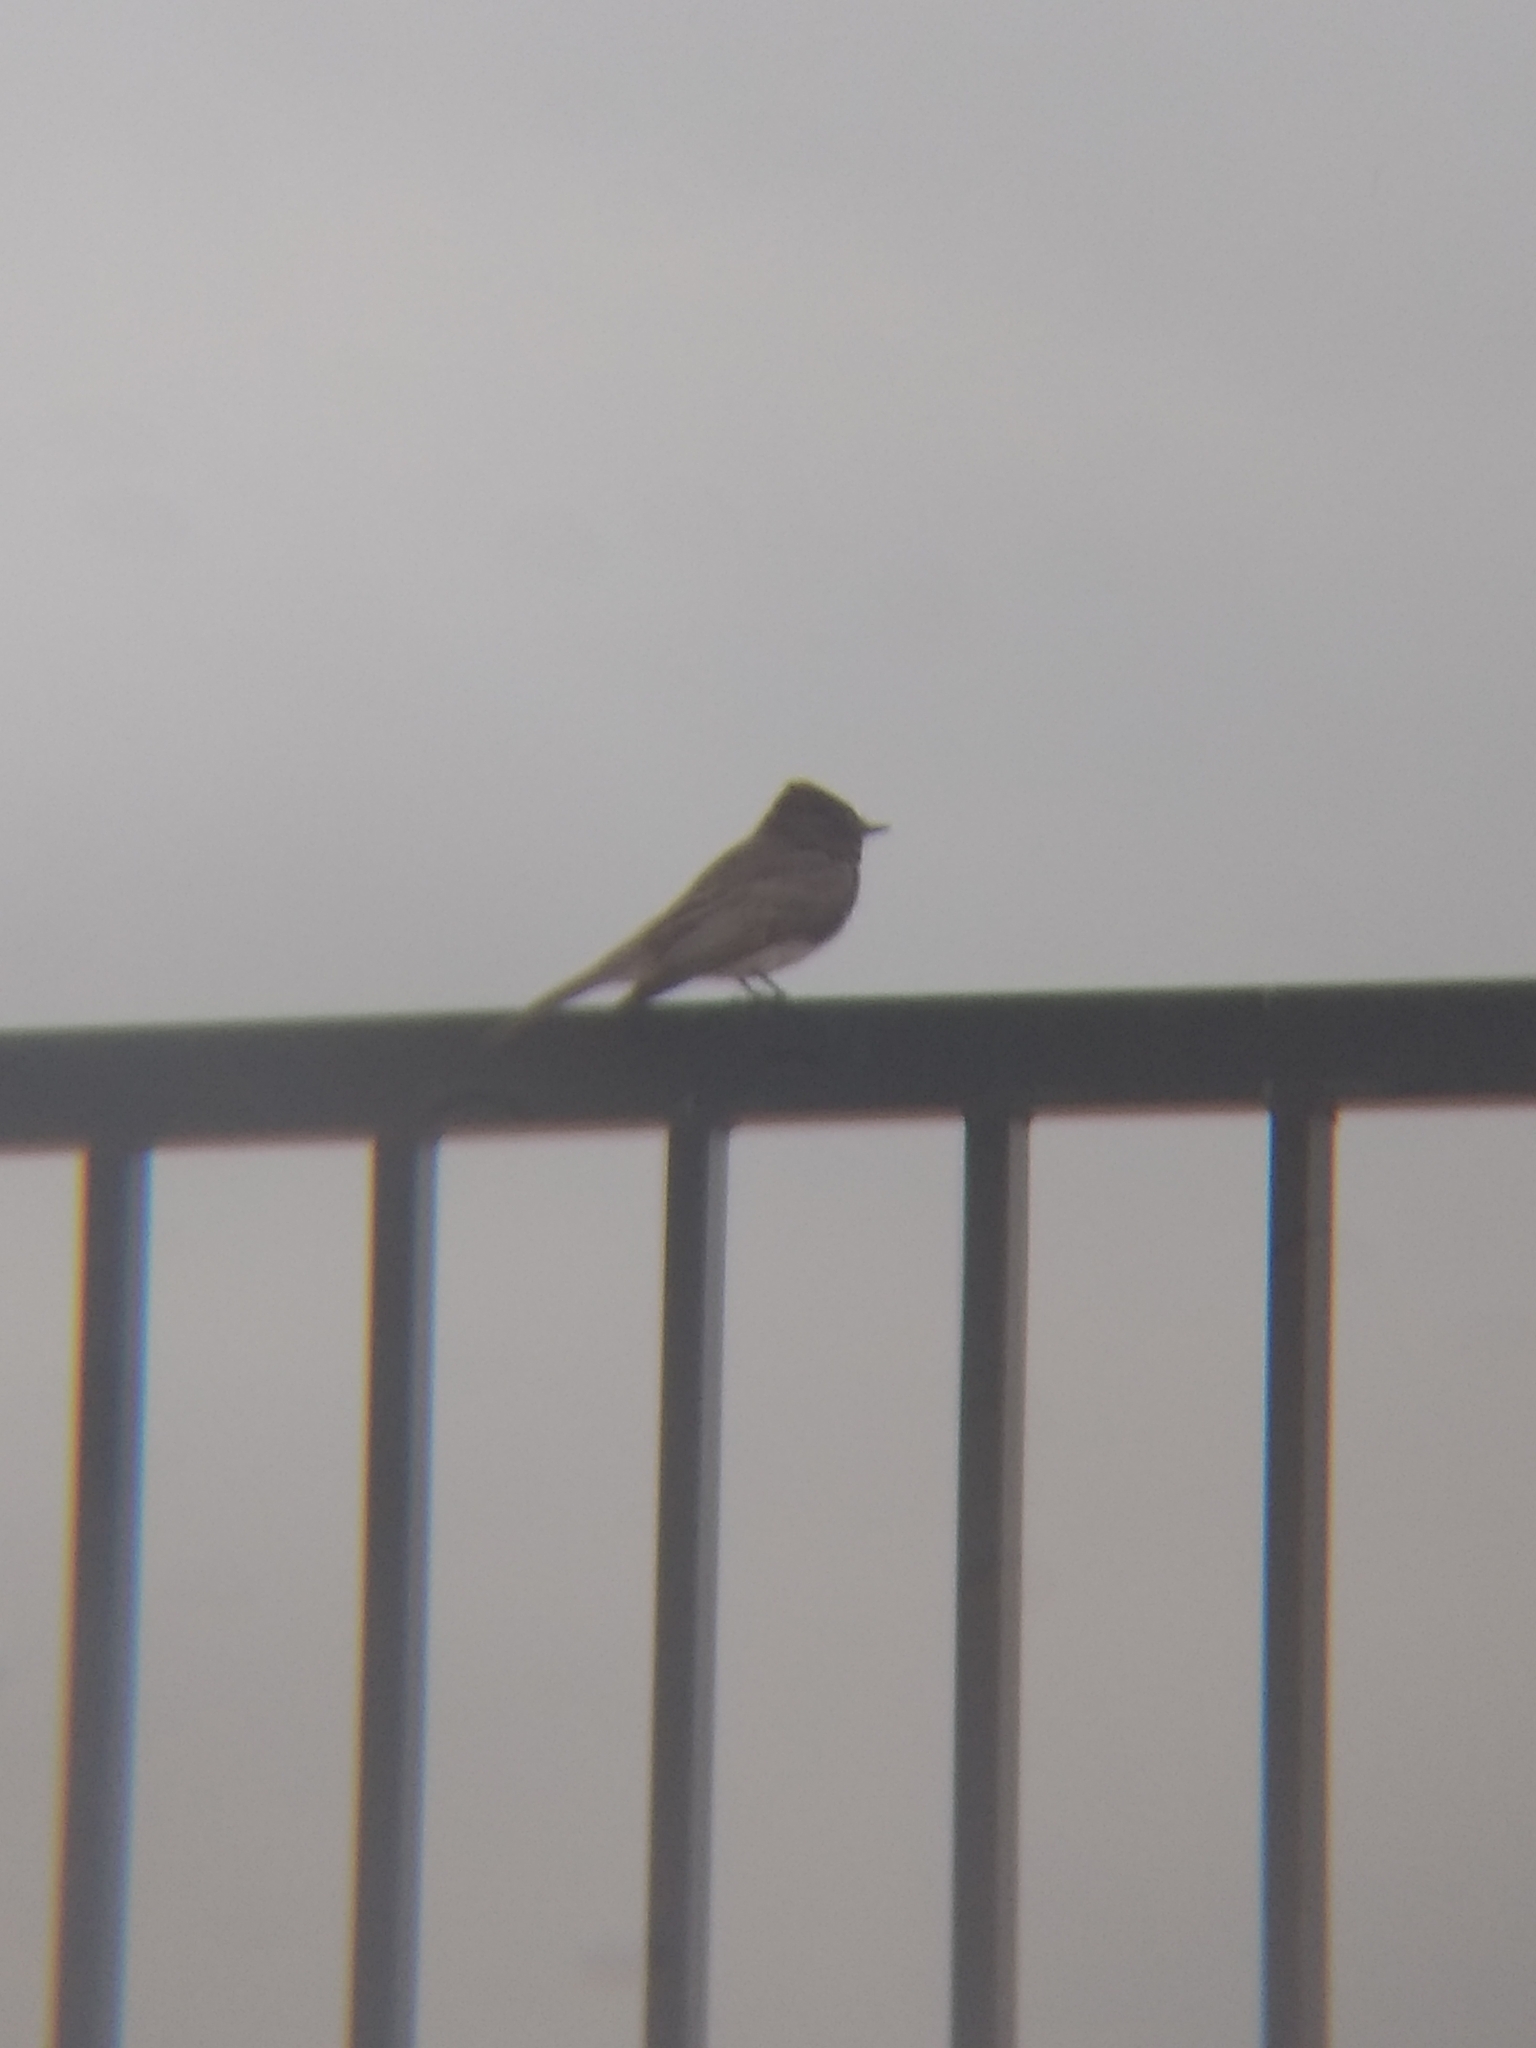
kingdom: Animalia
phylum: Chordata
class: Aves
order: Passeriformes
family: Tyrannidae
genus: Sayornis
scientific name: Sayornis nigricans
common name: Black phoebe
